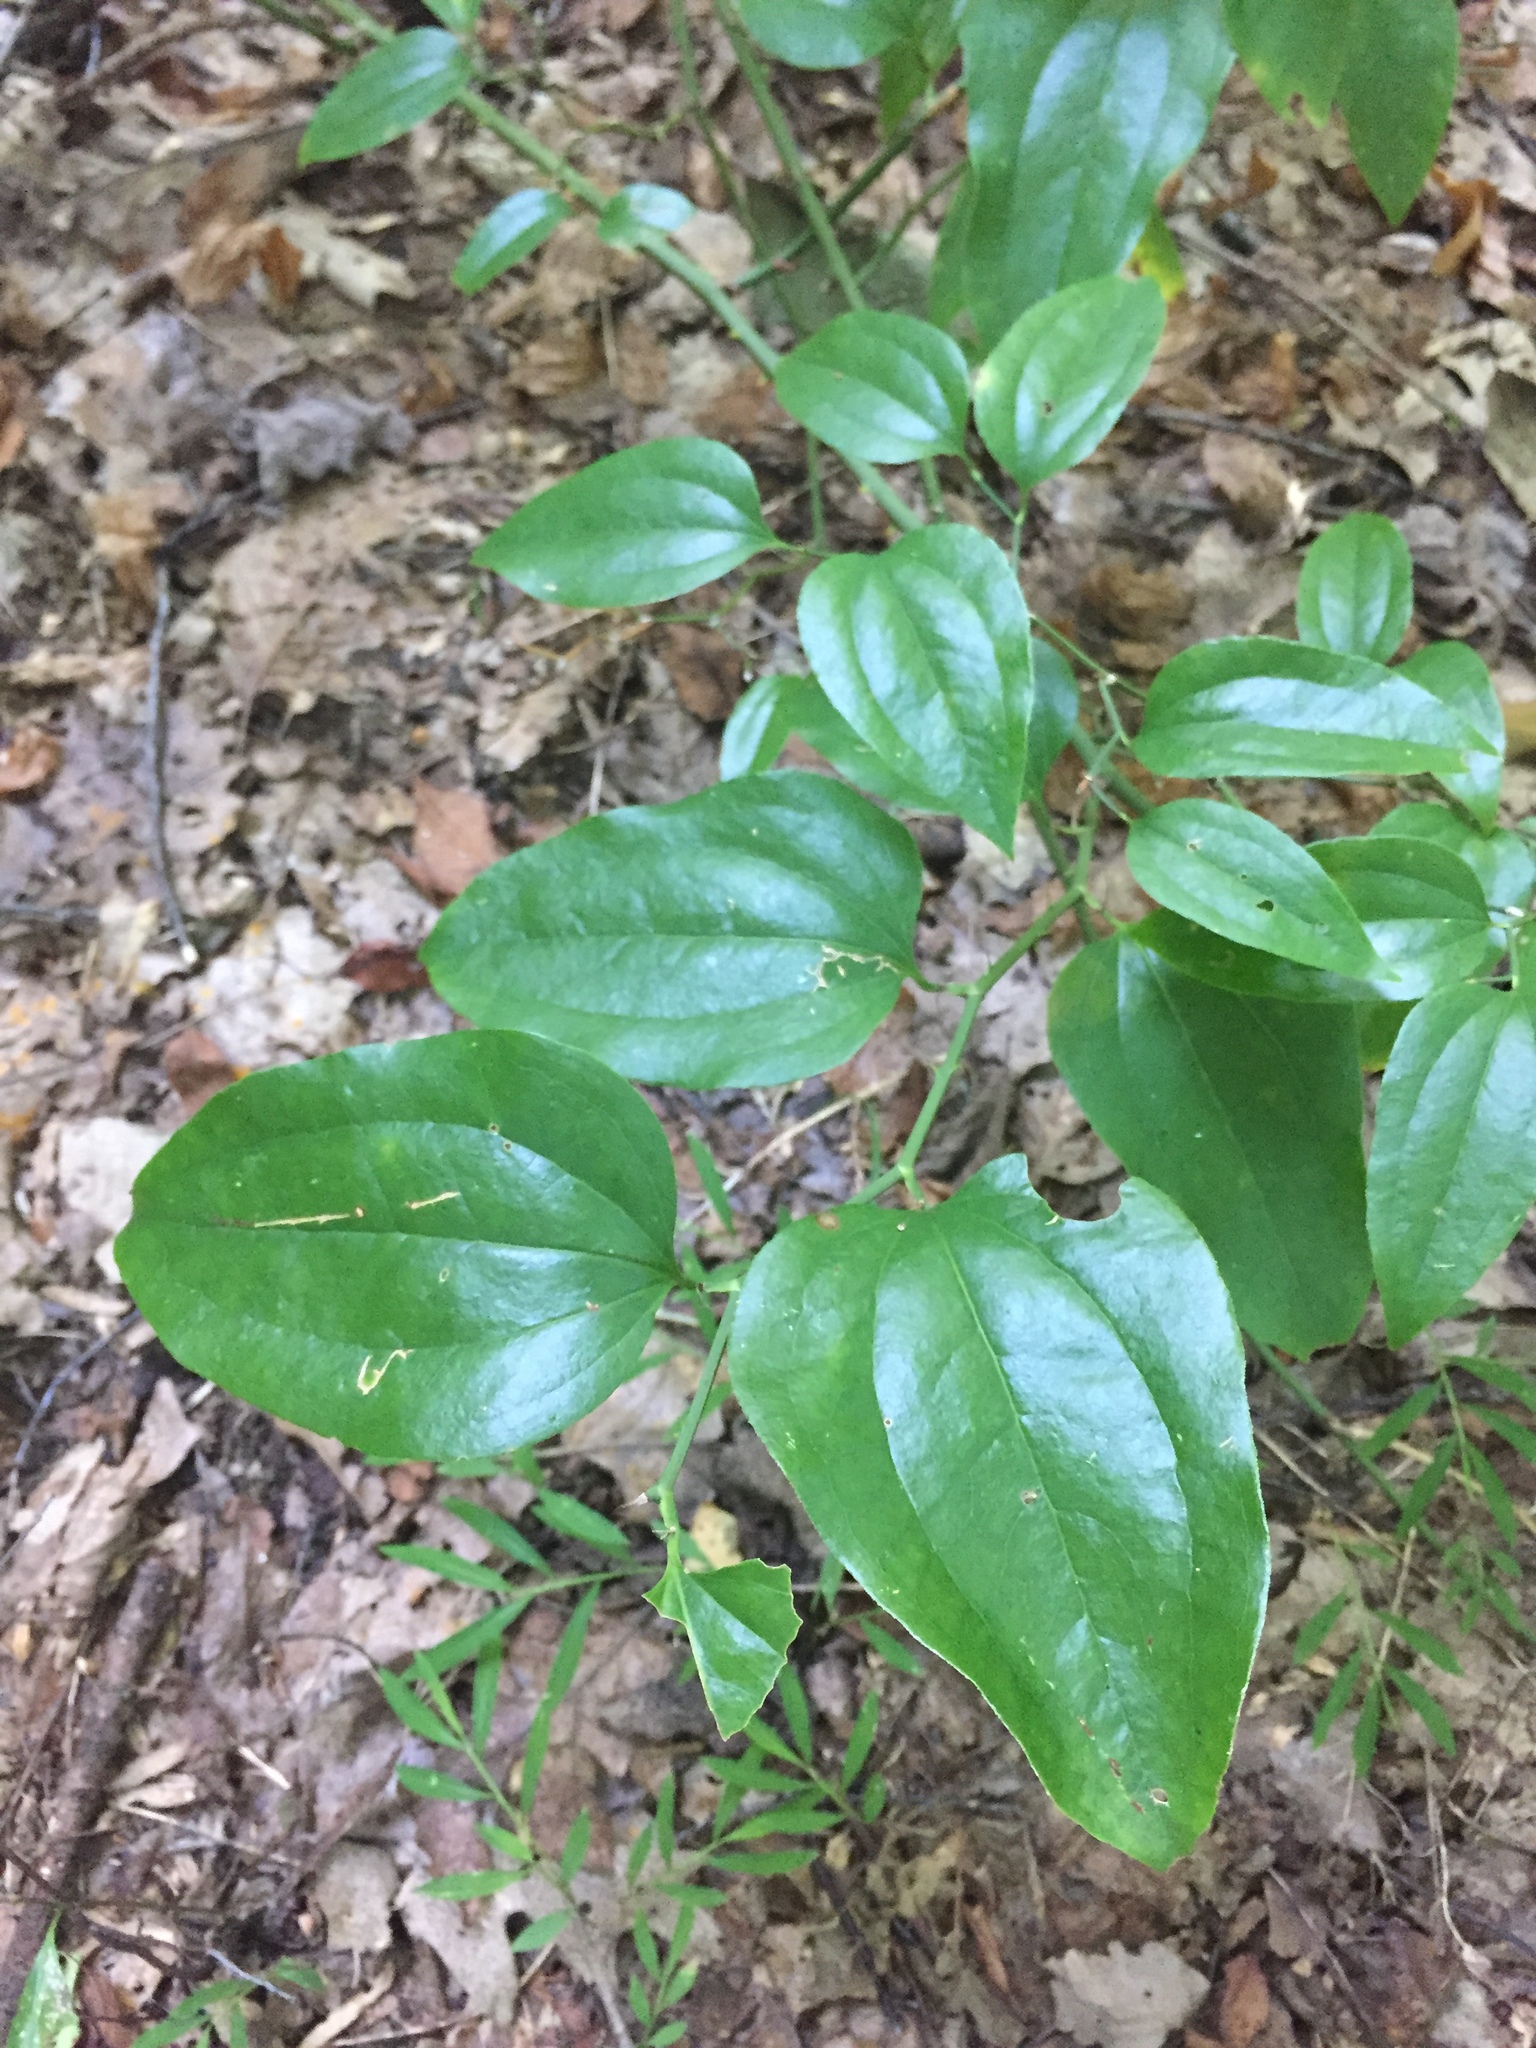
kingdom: Plantae
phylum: Tracheophyta
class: Liliopsida
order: Liliales
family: Smilacaceae
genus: Smilax
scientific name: Smilax rotundifolia
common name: Bullbriar
